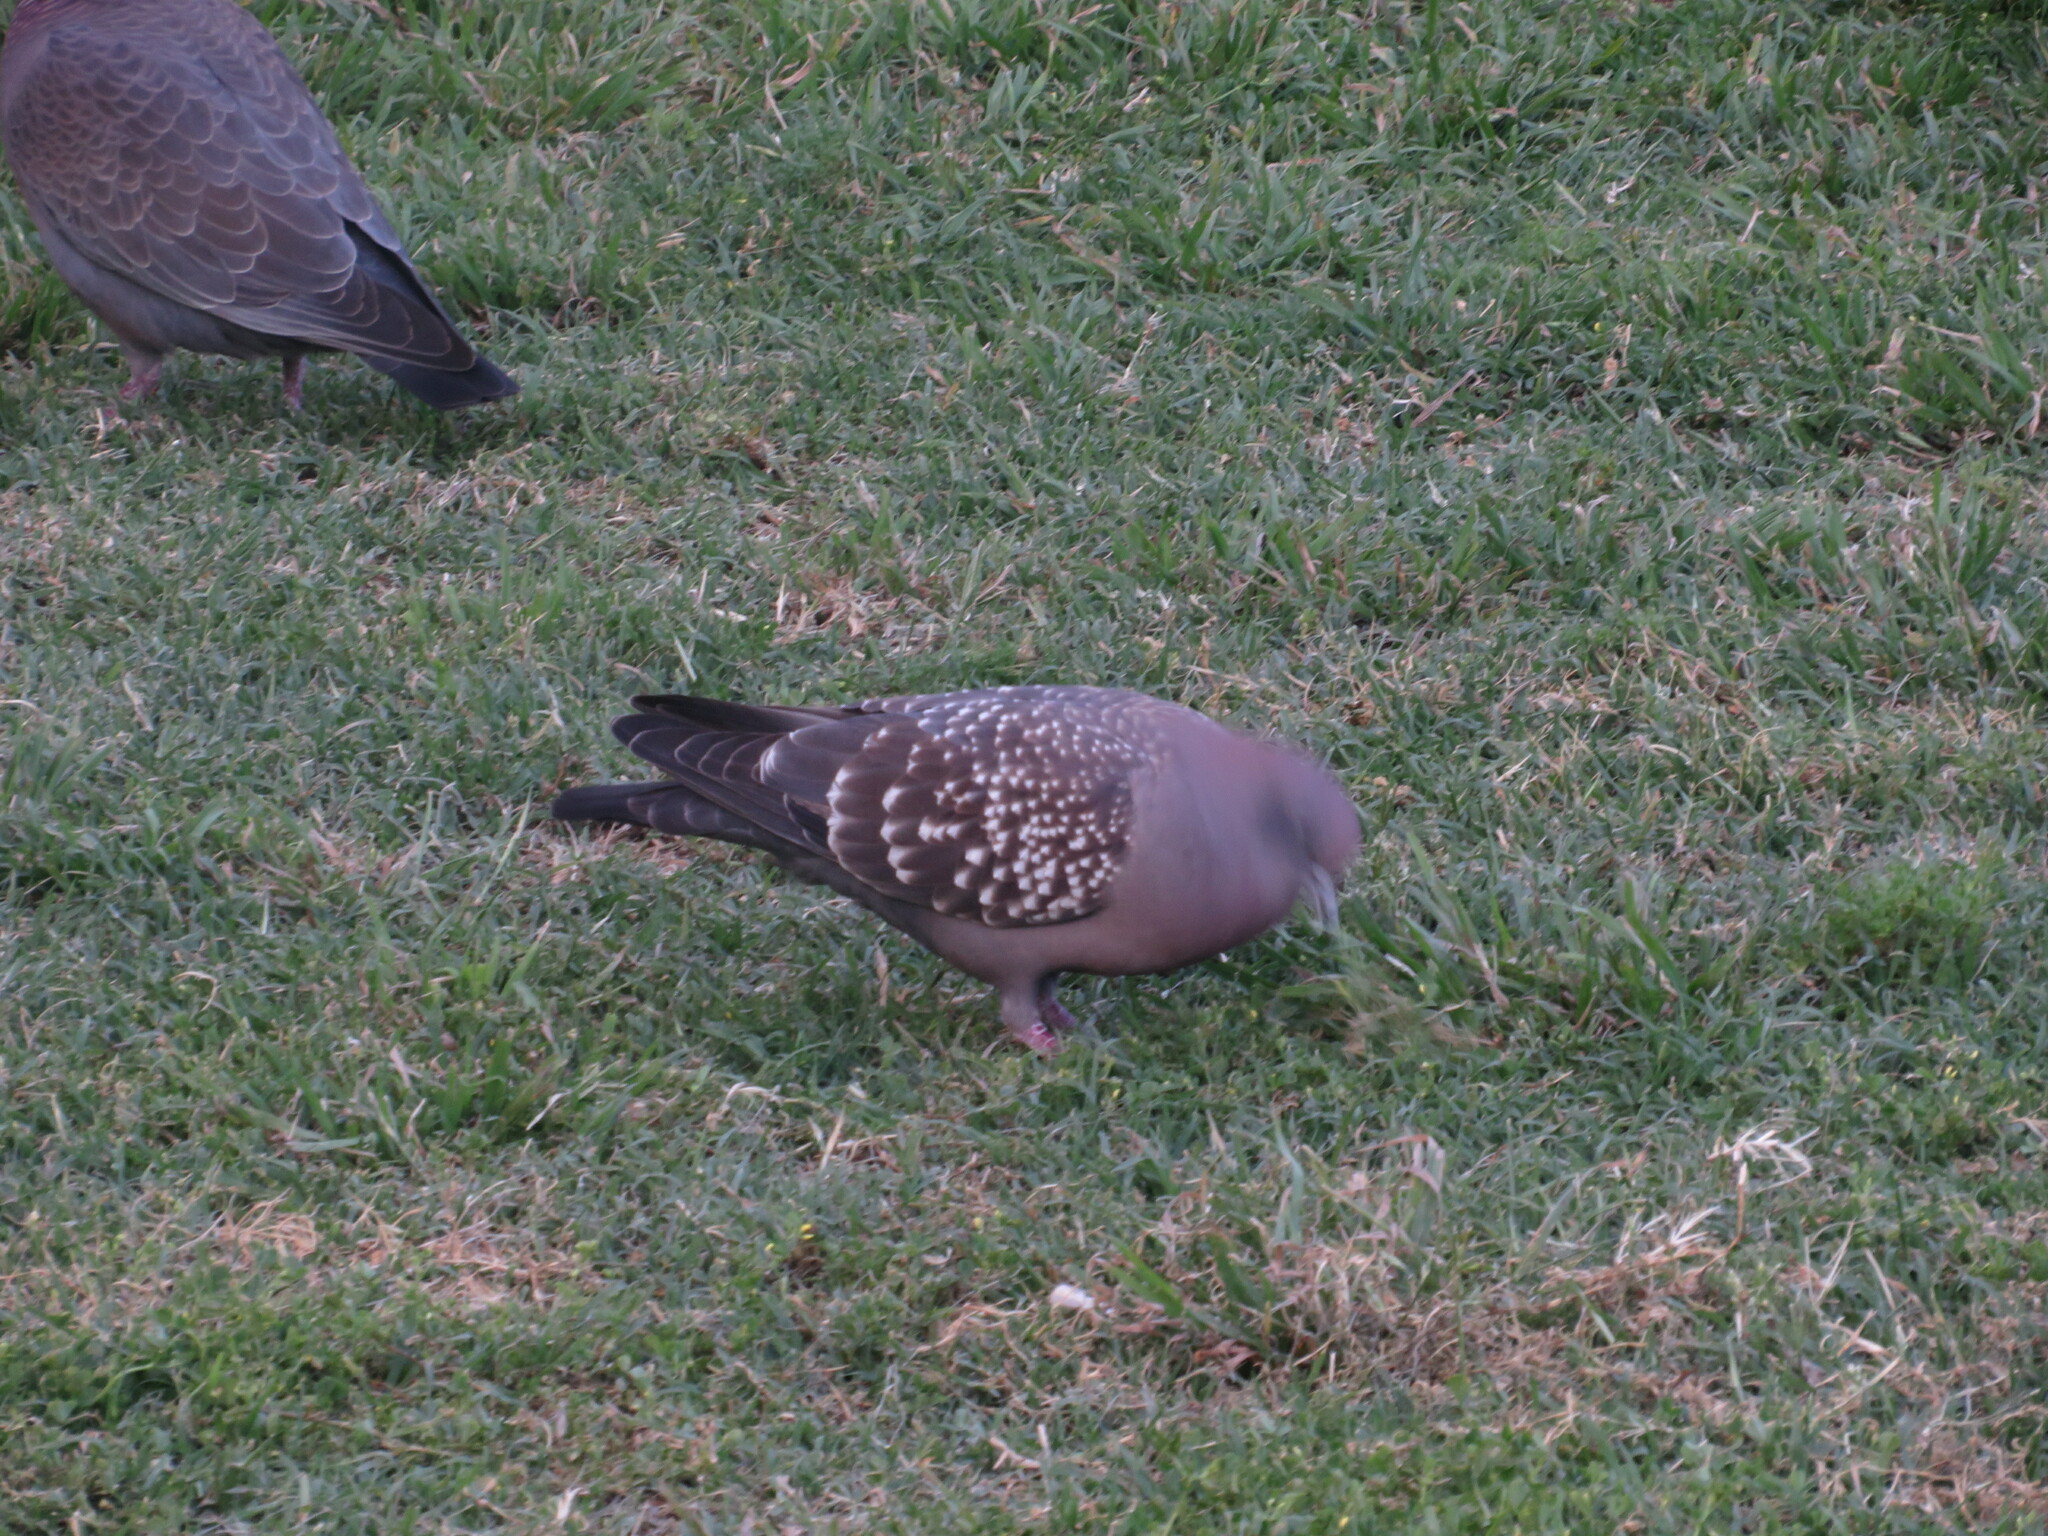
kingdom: Animalia
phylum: Chordata
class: Aves
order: Columbiformes
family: Columbidae
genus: Patagioenas
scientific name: Patagioenas maculosa
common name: Spot-winged pigeon
